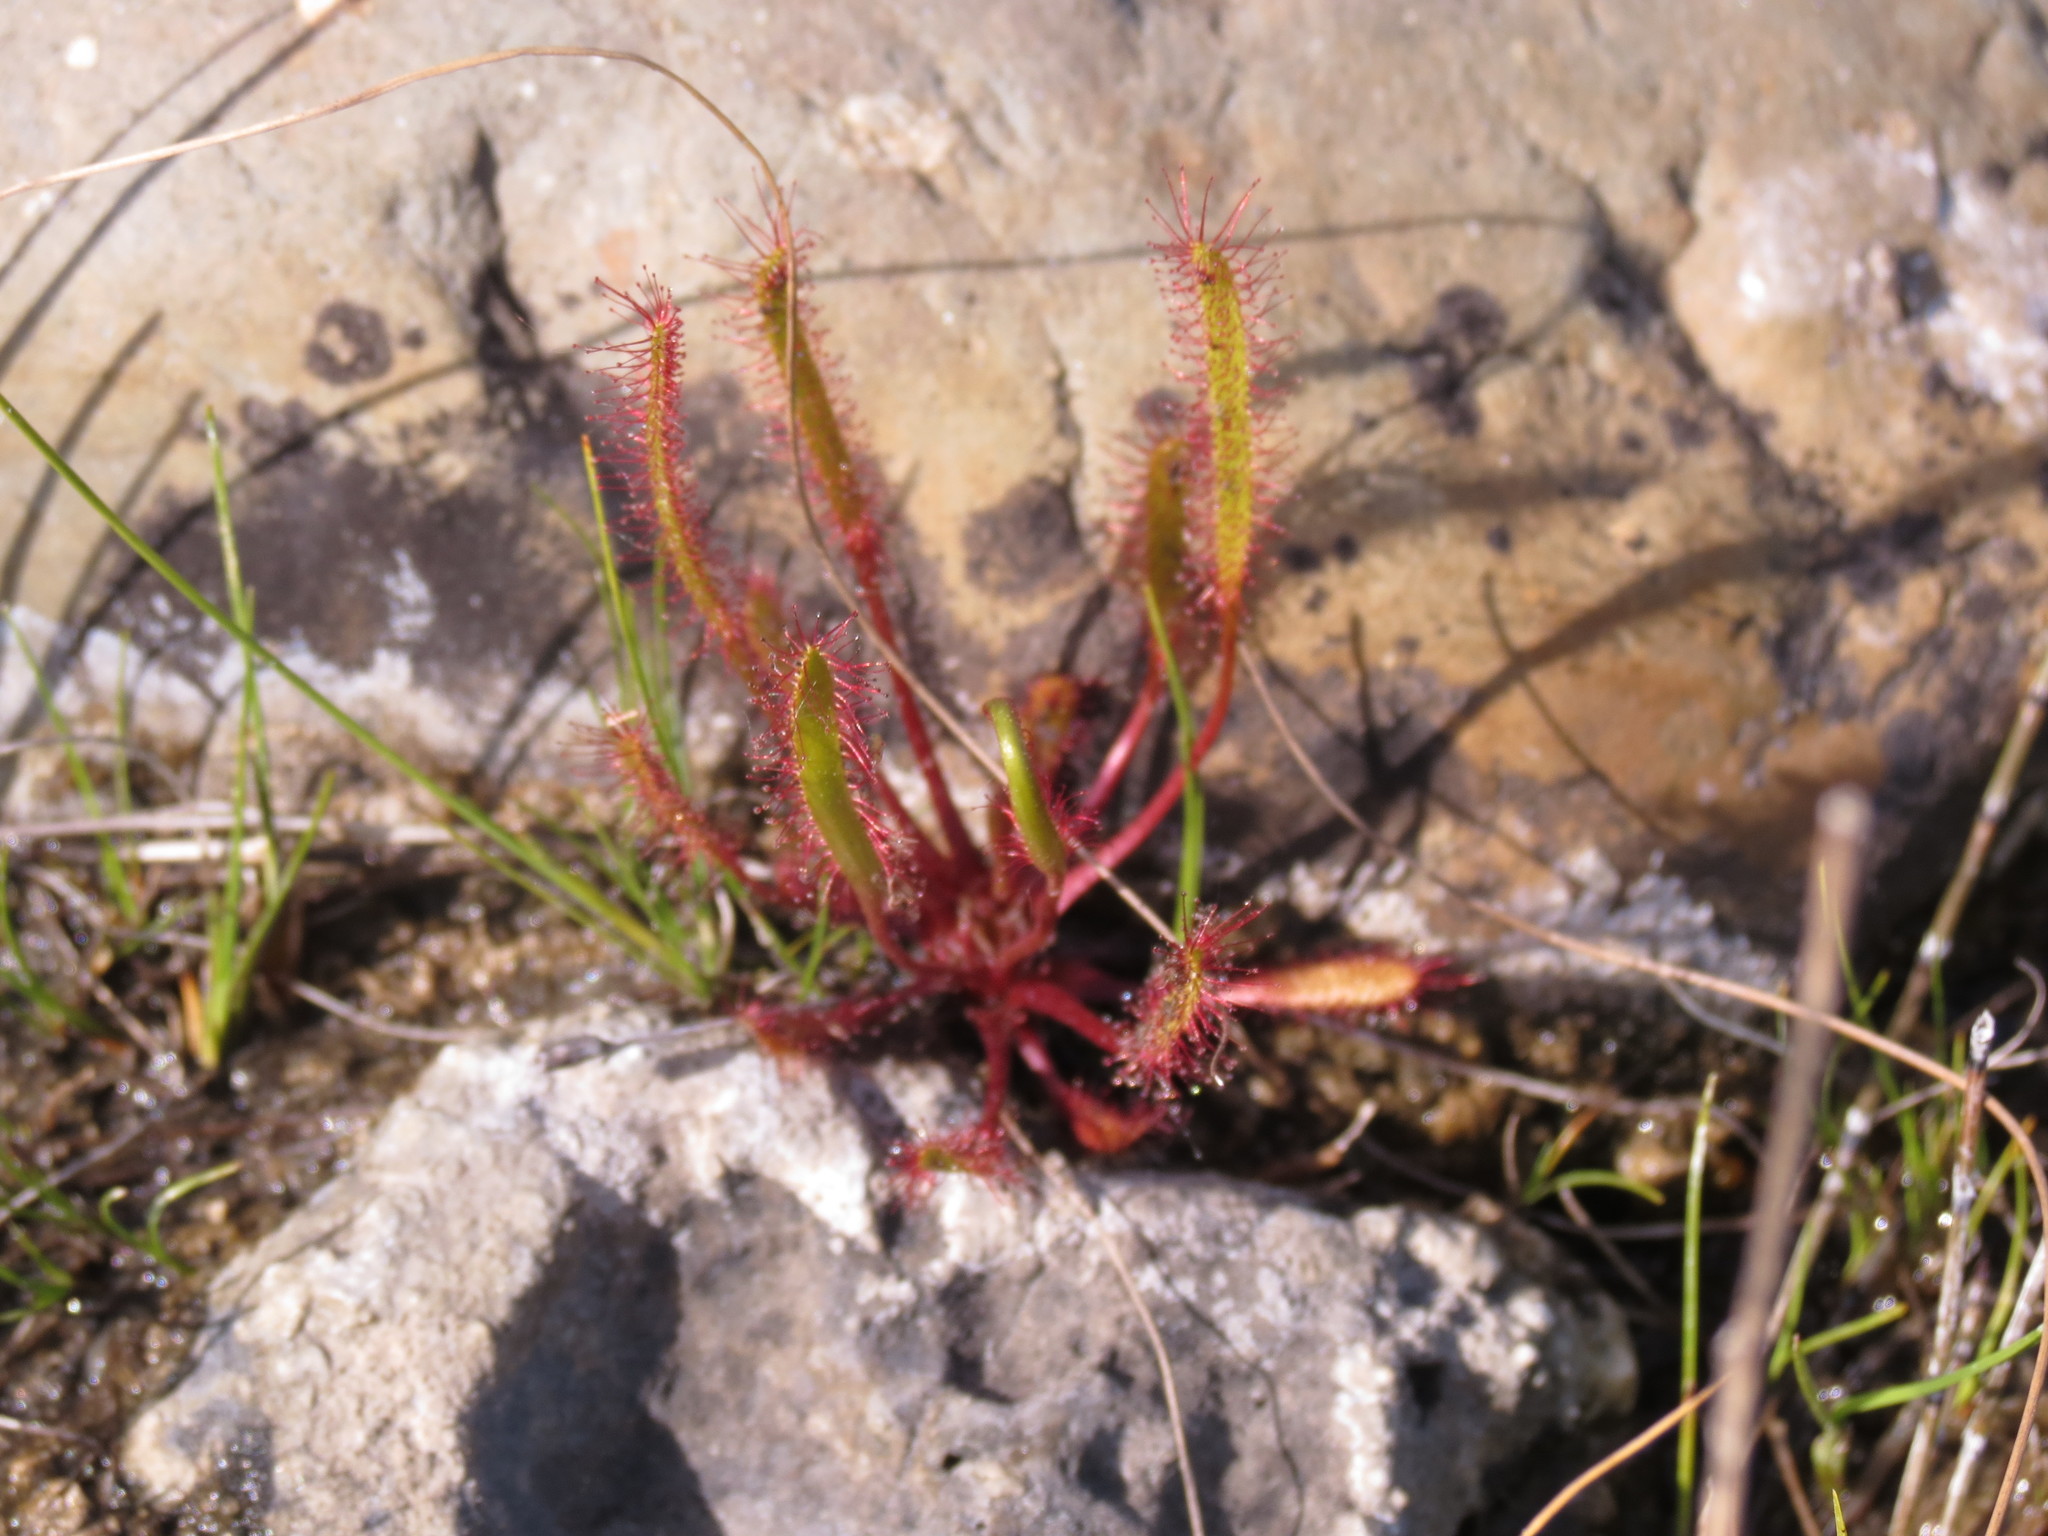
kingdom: Plantae
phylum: Tracheophyta
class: Magnoliopsida
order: Caryophyllales
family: Droseraceae
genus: Drosera
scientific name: Drosera linearis
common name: Linear-leaved sundew
